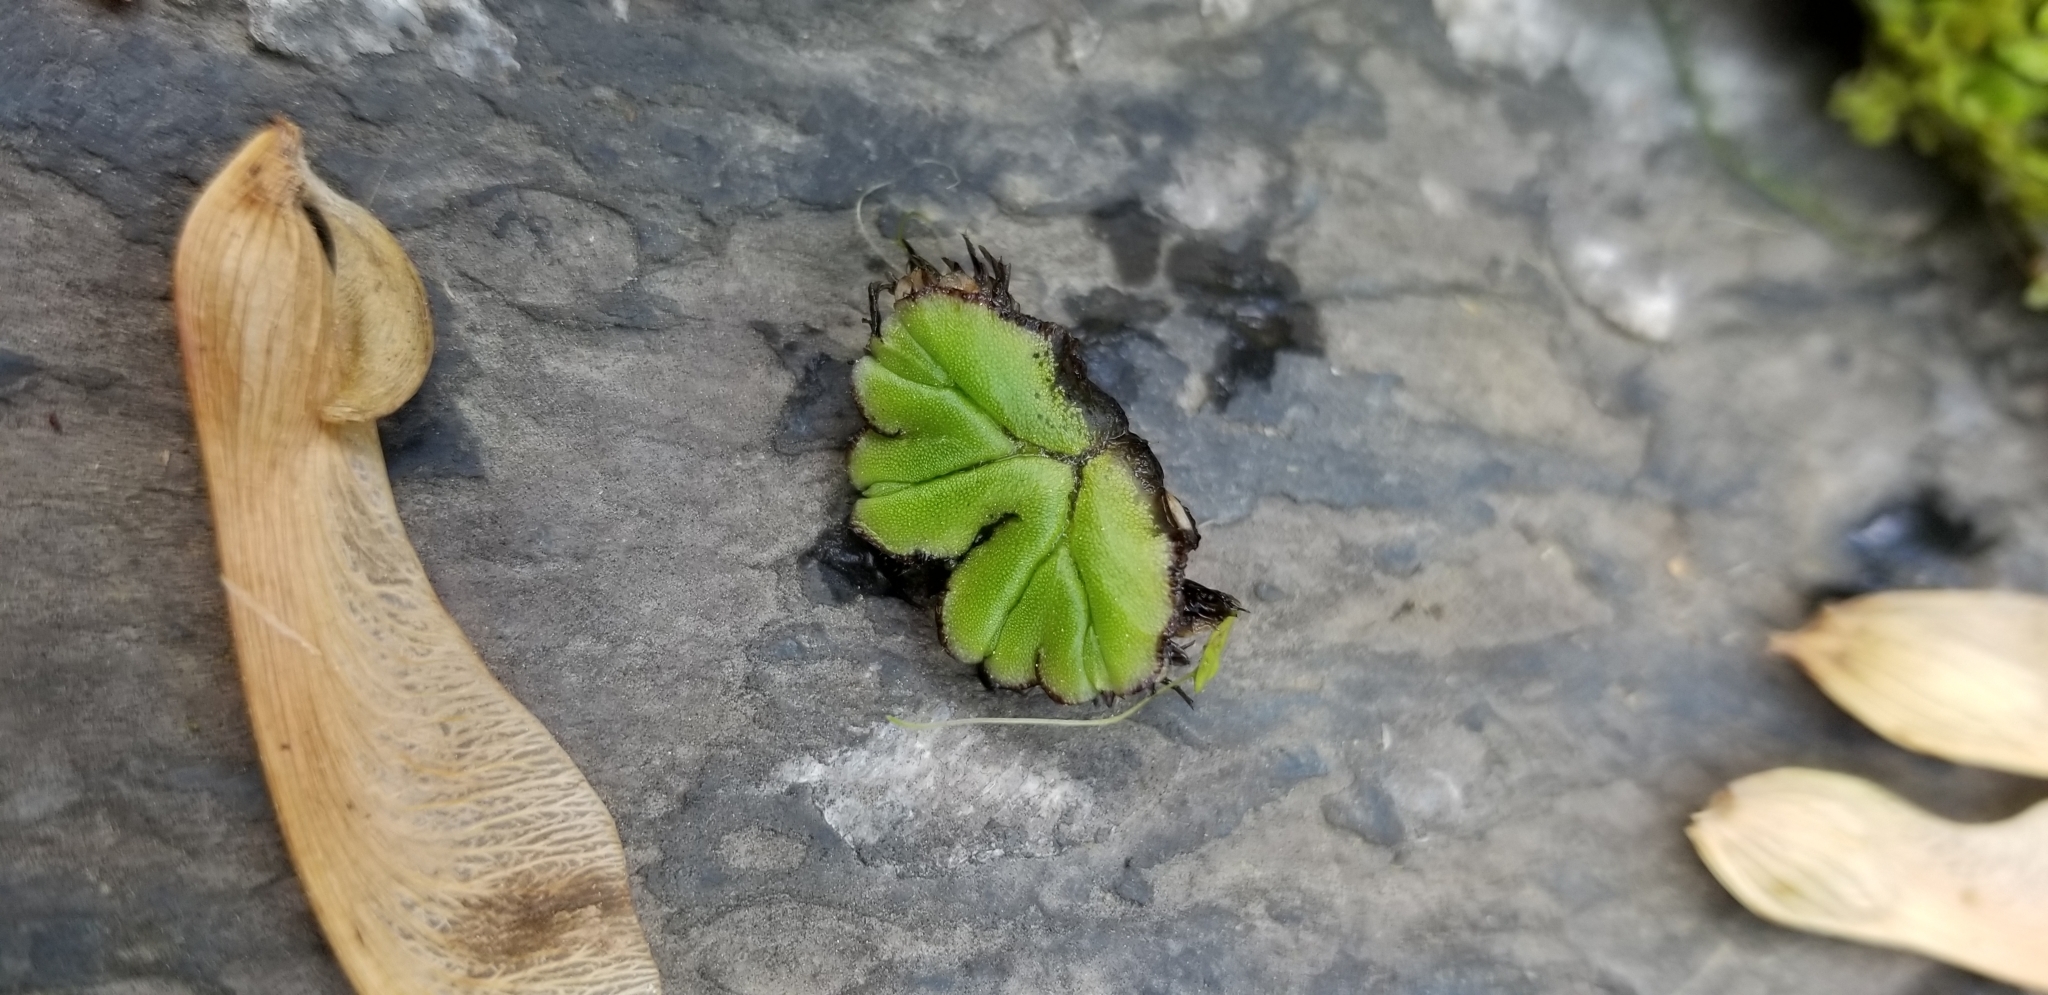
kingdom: Plantae
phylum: Marchantiophyta
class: Marchantiopsida
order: Marchantiales
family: Ricciaceae
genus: Ricciocarpos
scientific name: Ricciocarpos natans
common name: Purple-fringed liverwort
